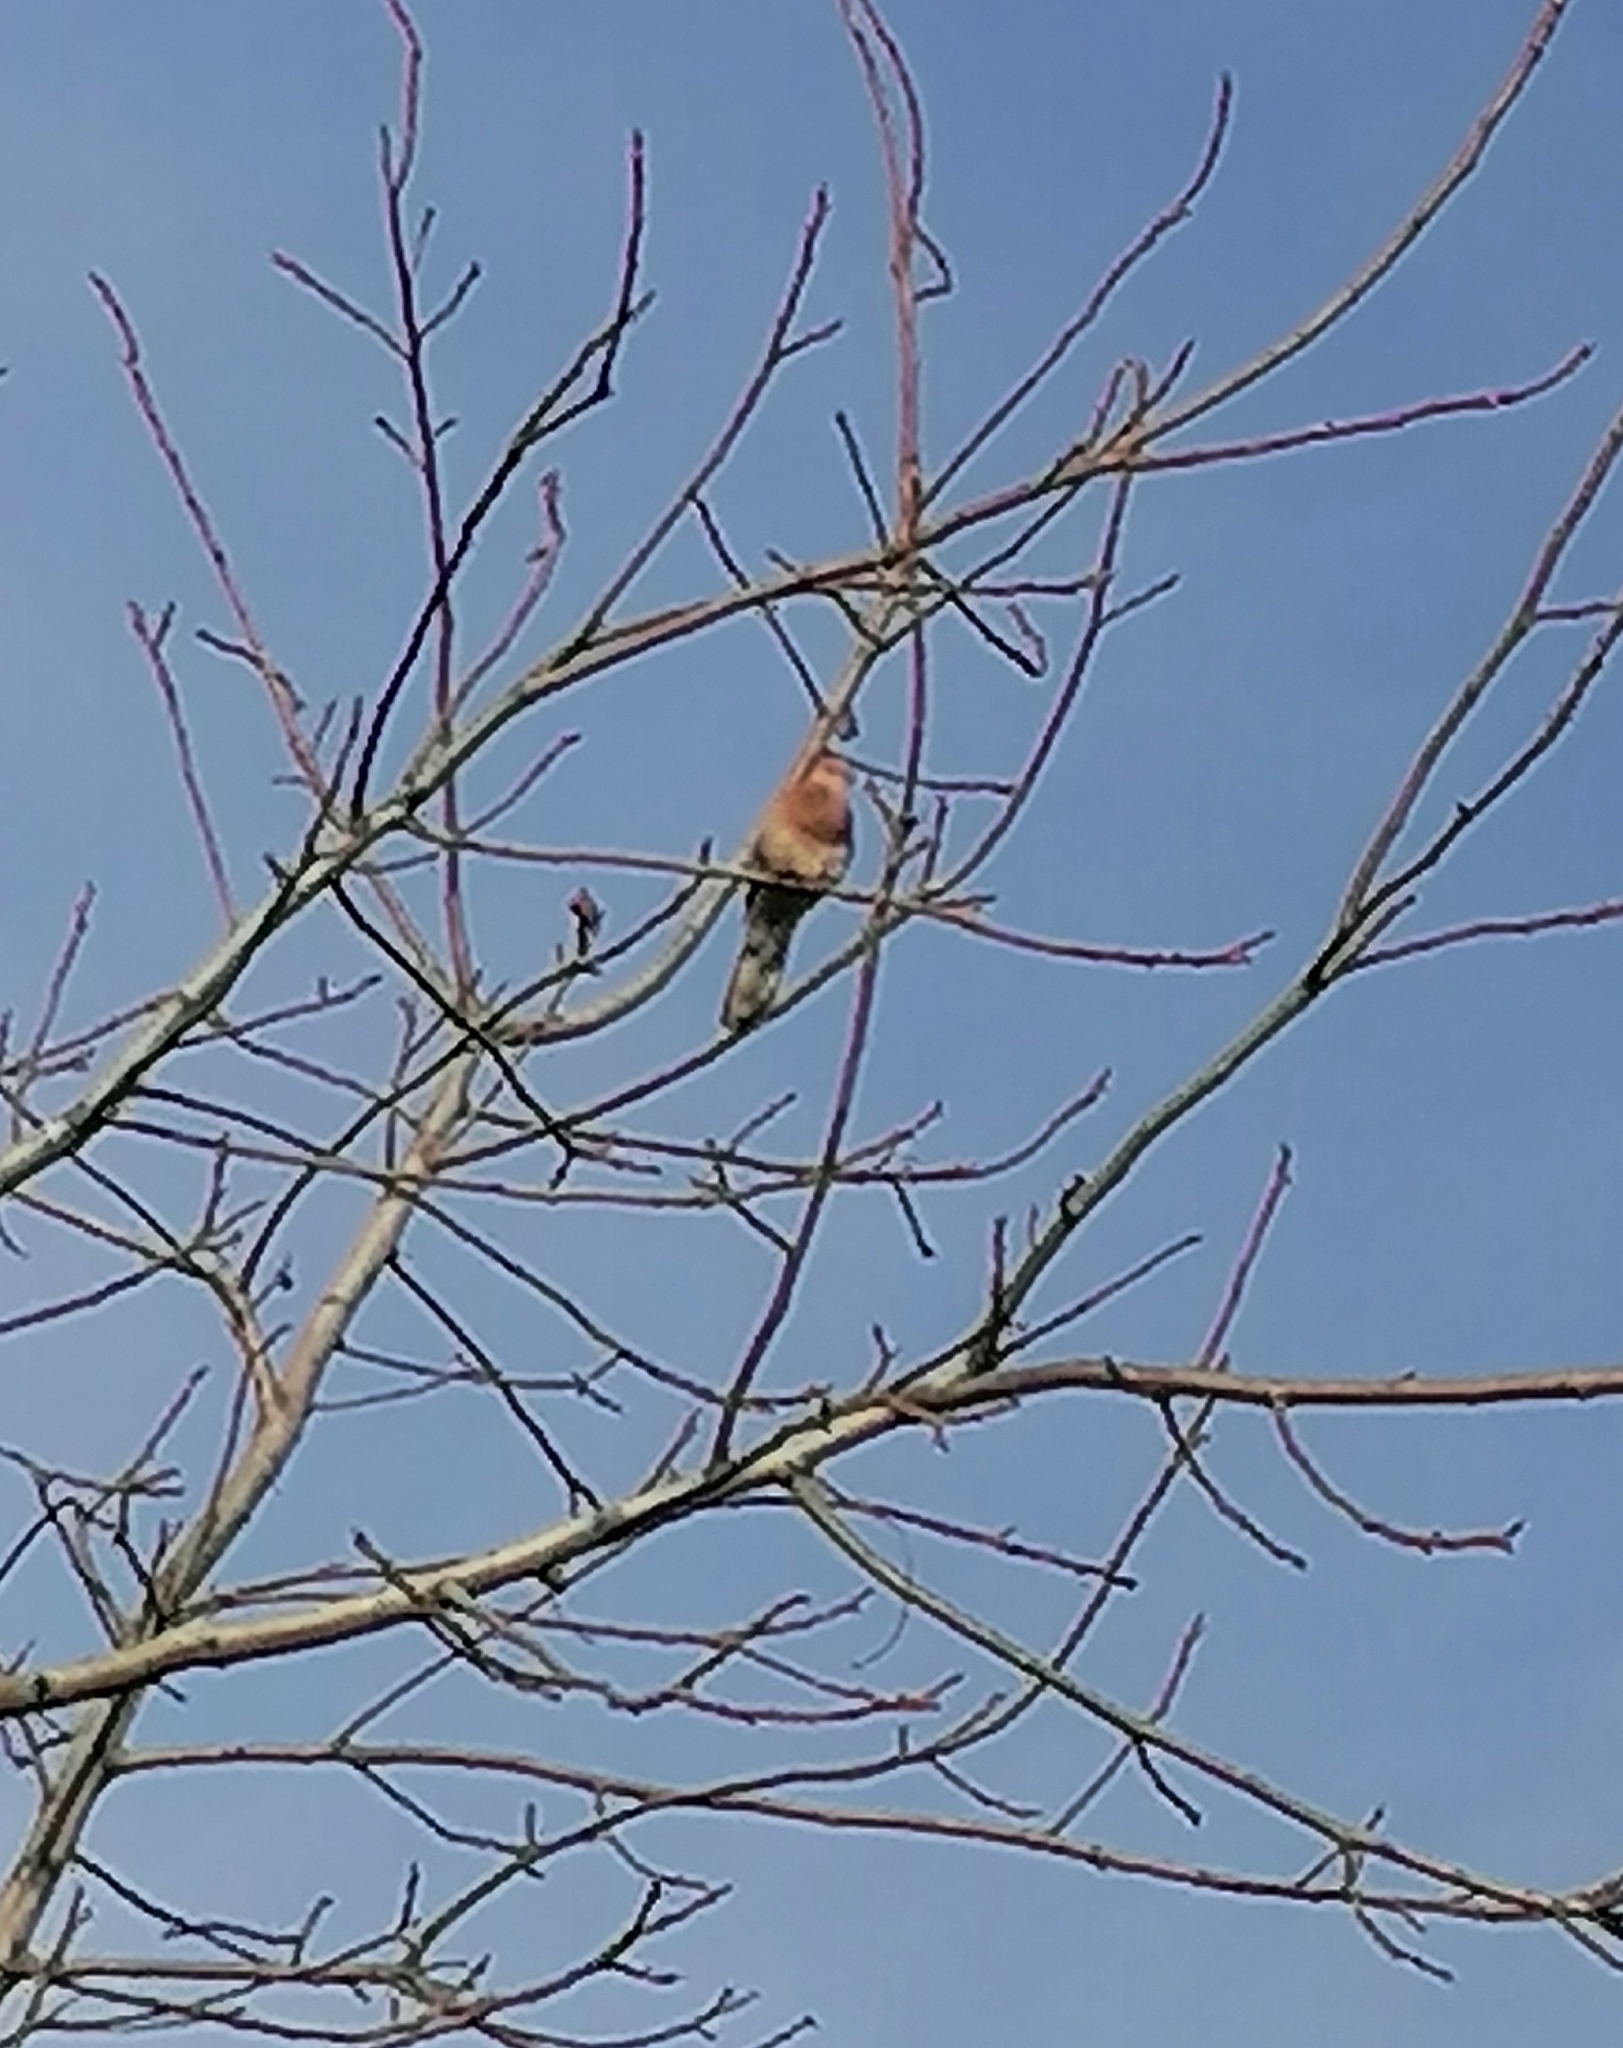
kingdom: Animalia
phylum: Chordata
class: Aves
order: Columbiformes
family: Columbidae
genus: Spilopelia
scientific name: Spilopelia senegalensis
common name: Laughing dove
